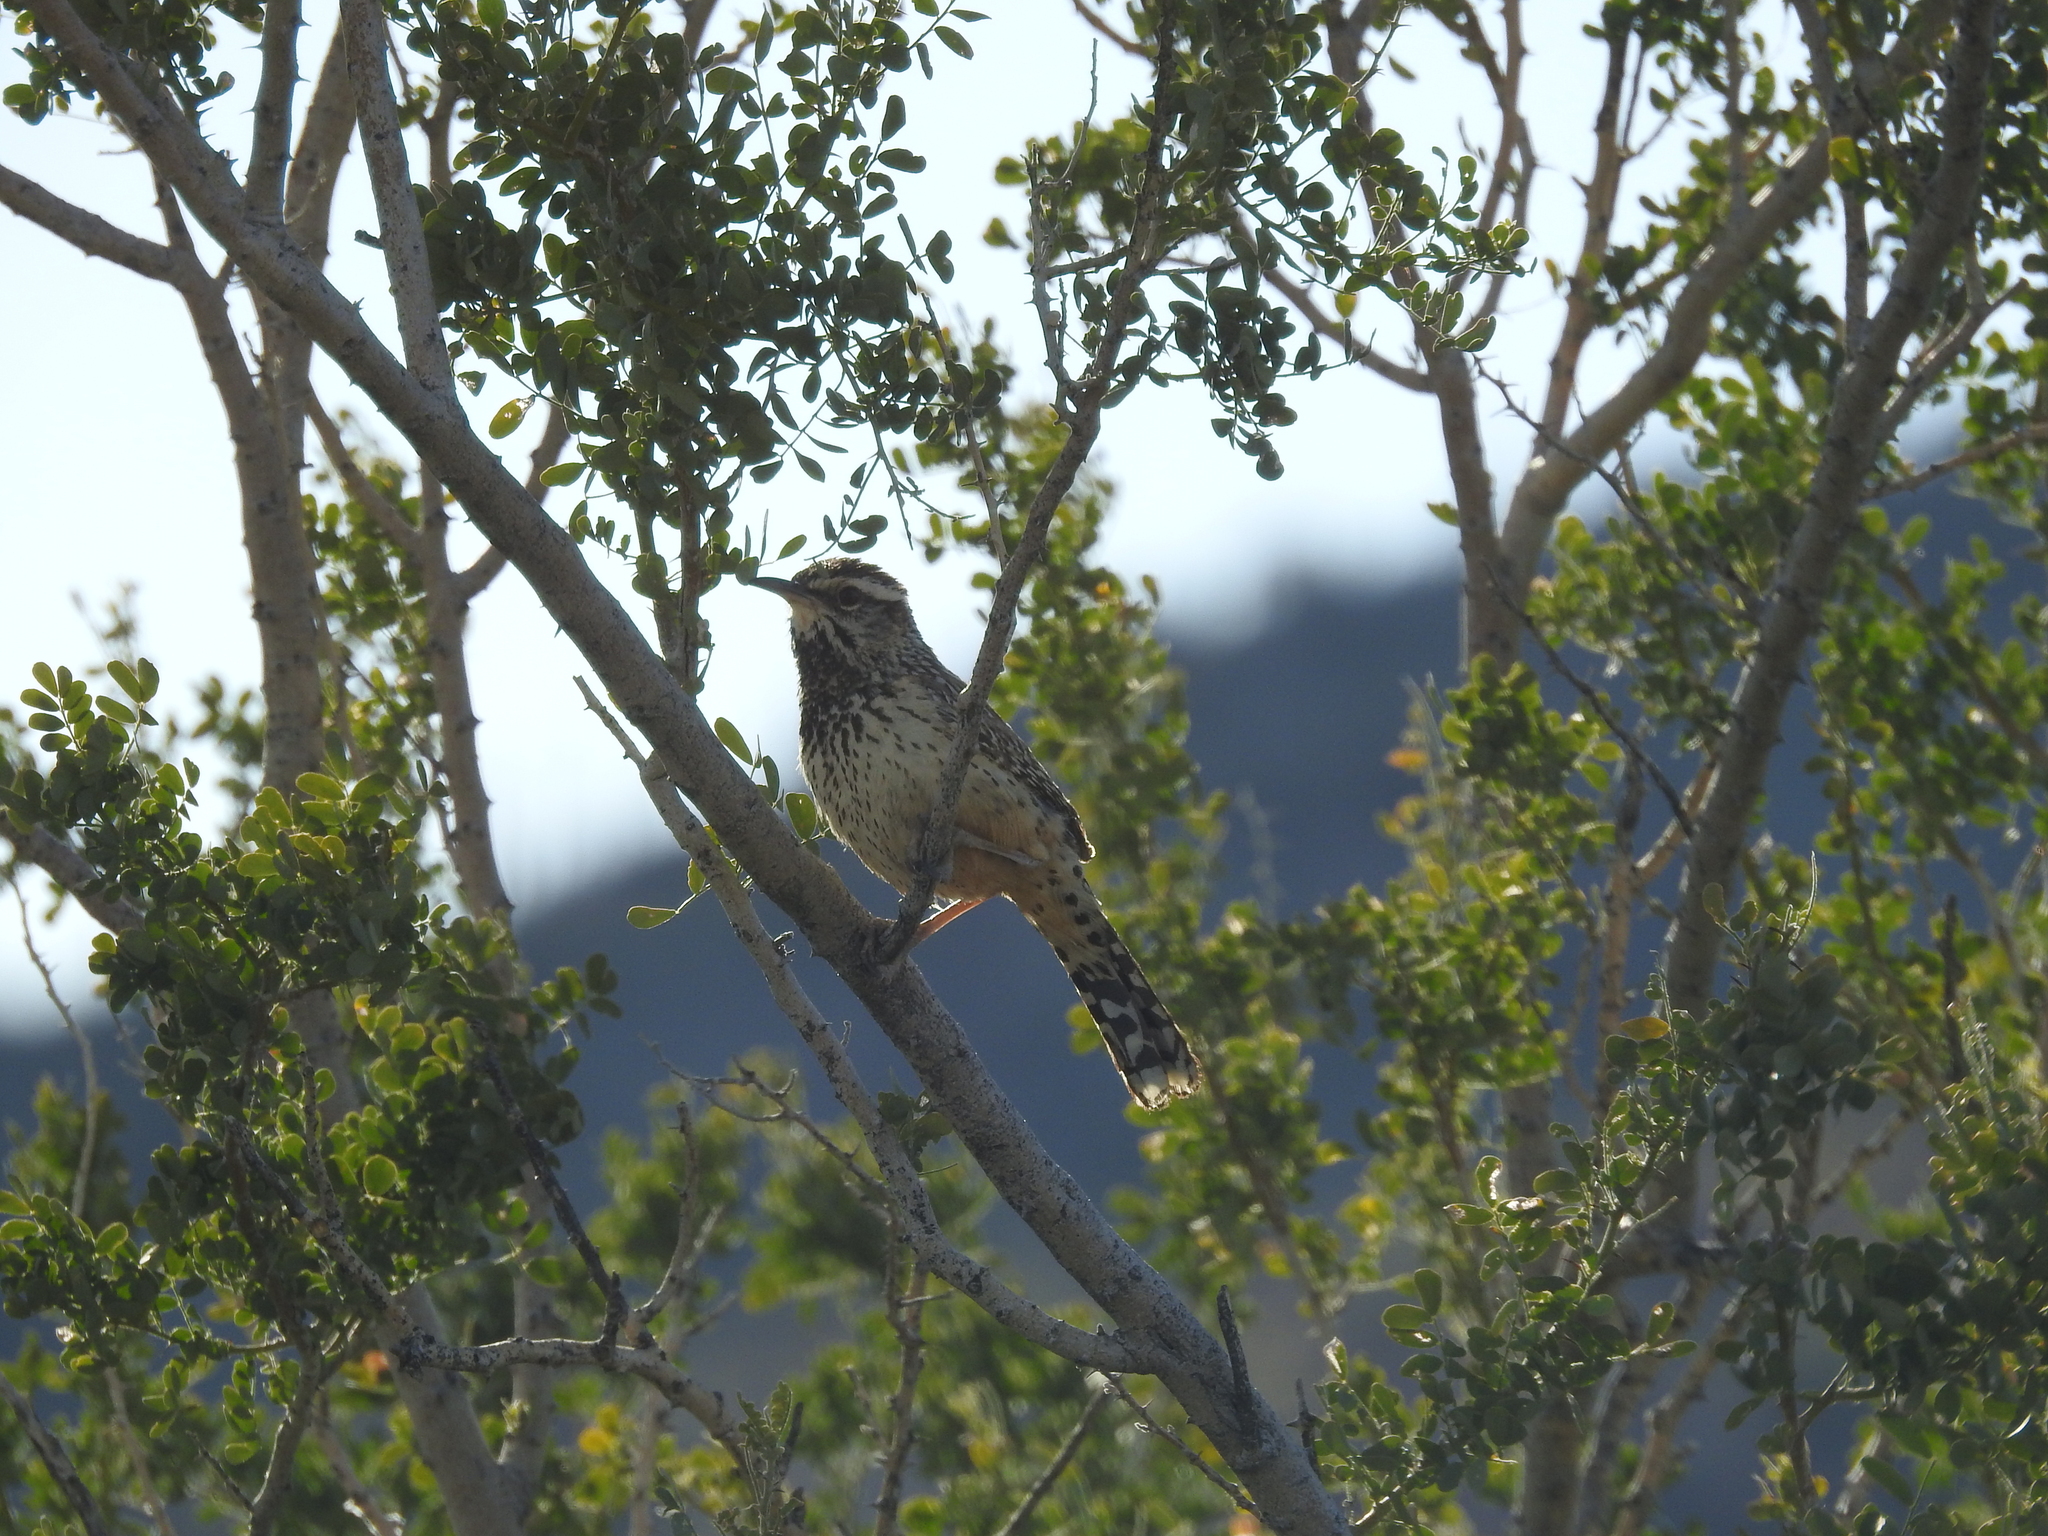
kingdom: Animalia
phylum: Chordata
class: Aves
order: Passeriformes
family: Troglodytidae
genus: Campylorhynchus
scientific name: Campylorhynchus brunneicapillus
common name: Cactus wren
